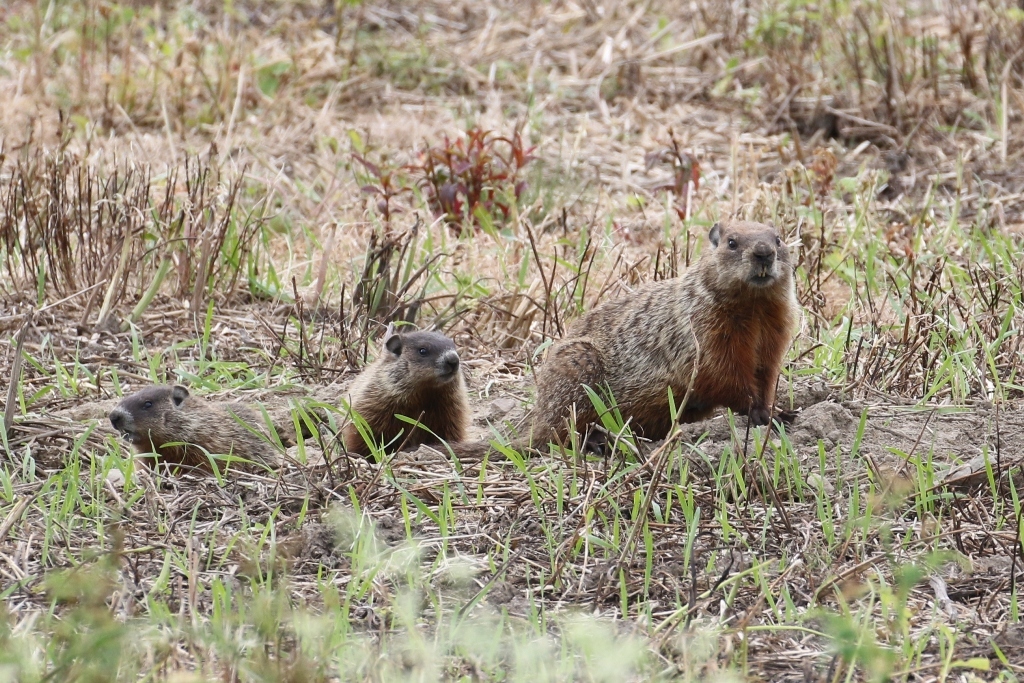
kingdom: Animalia
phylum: Chordata
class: Mammalia
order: Rodentia
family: Sciuridae
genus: Marmota
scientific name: Marmota monax
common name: Groundhog
